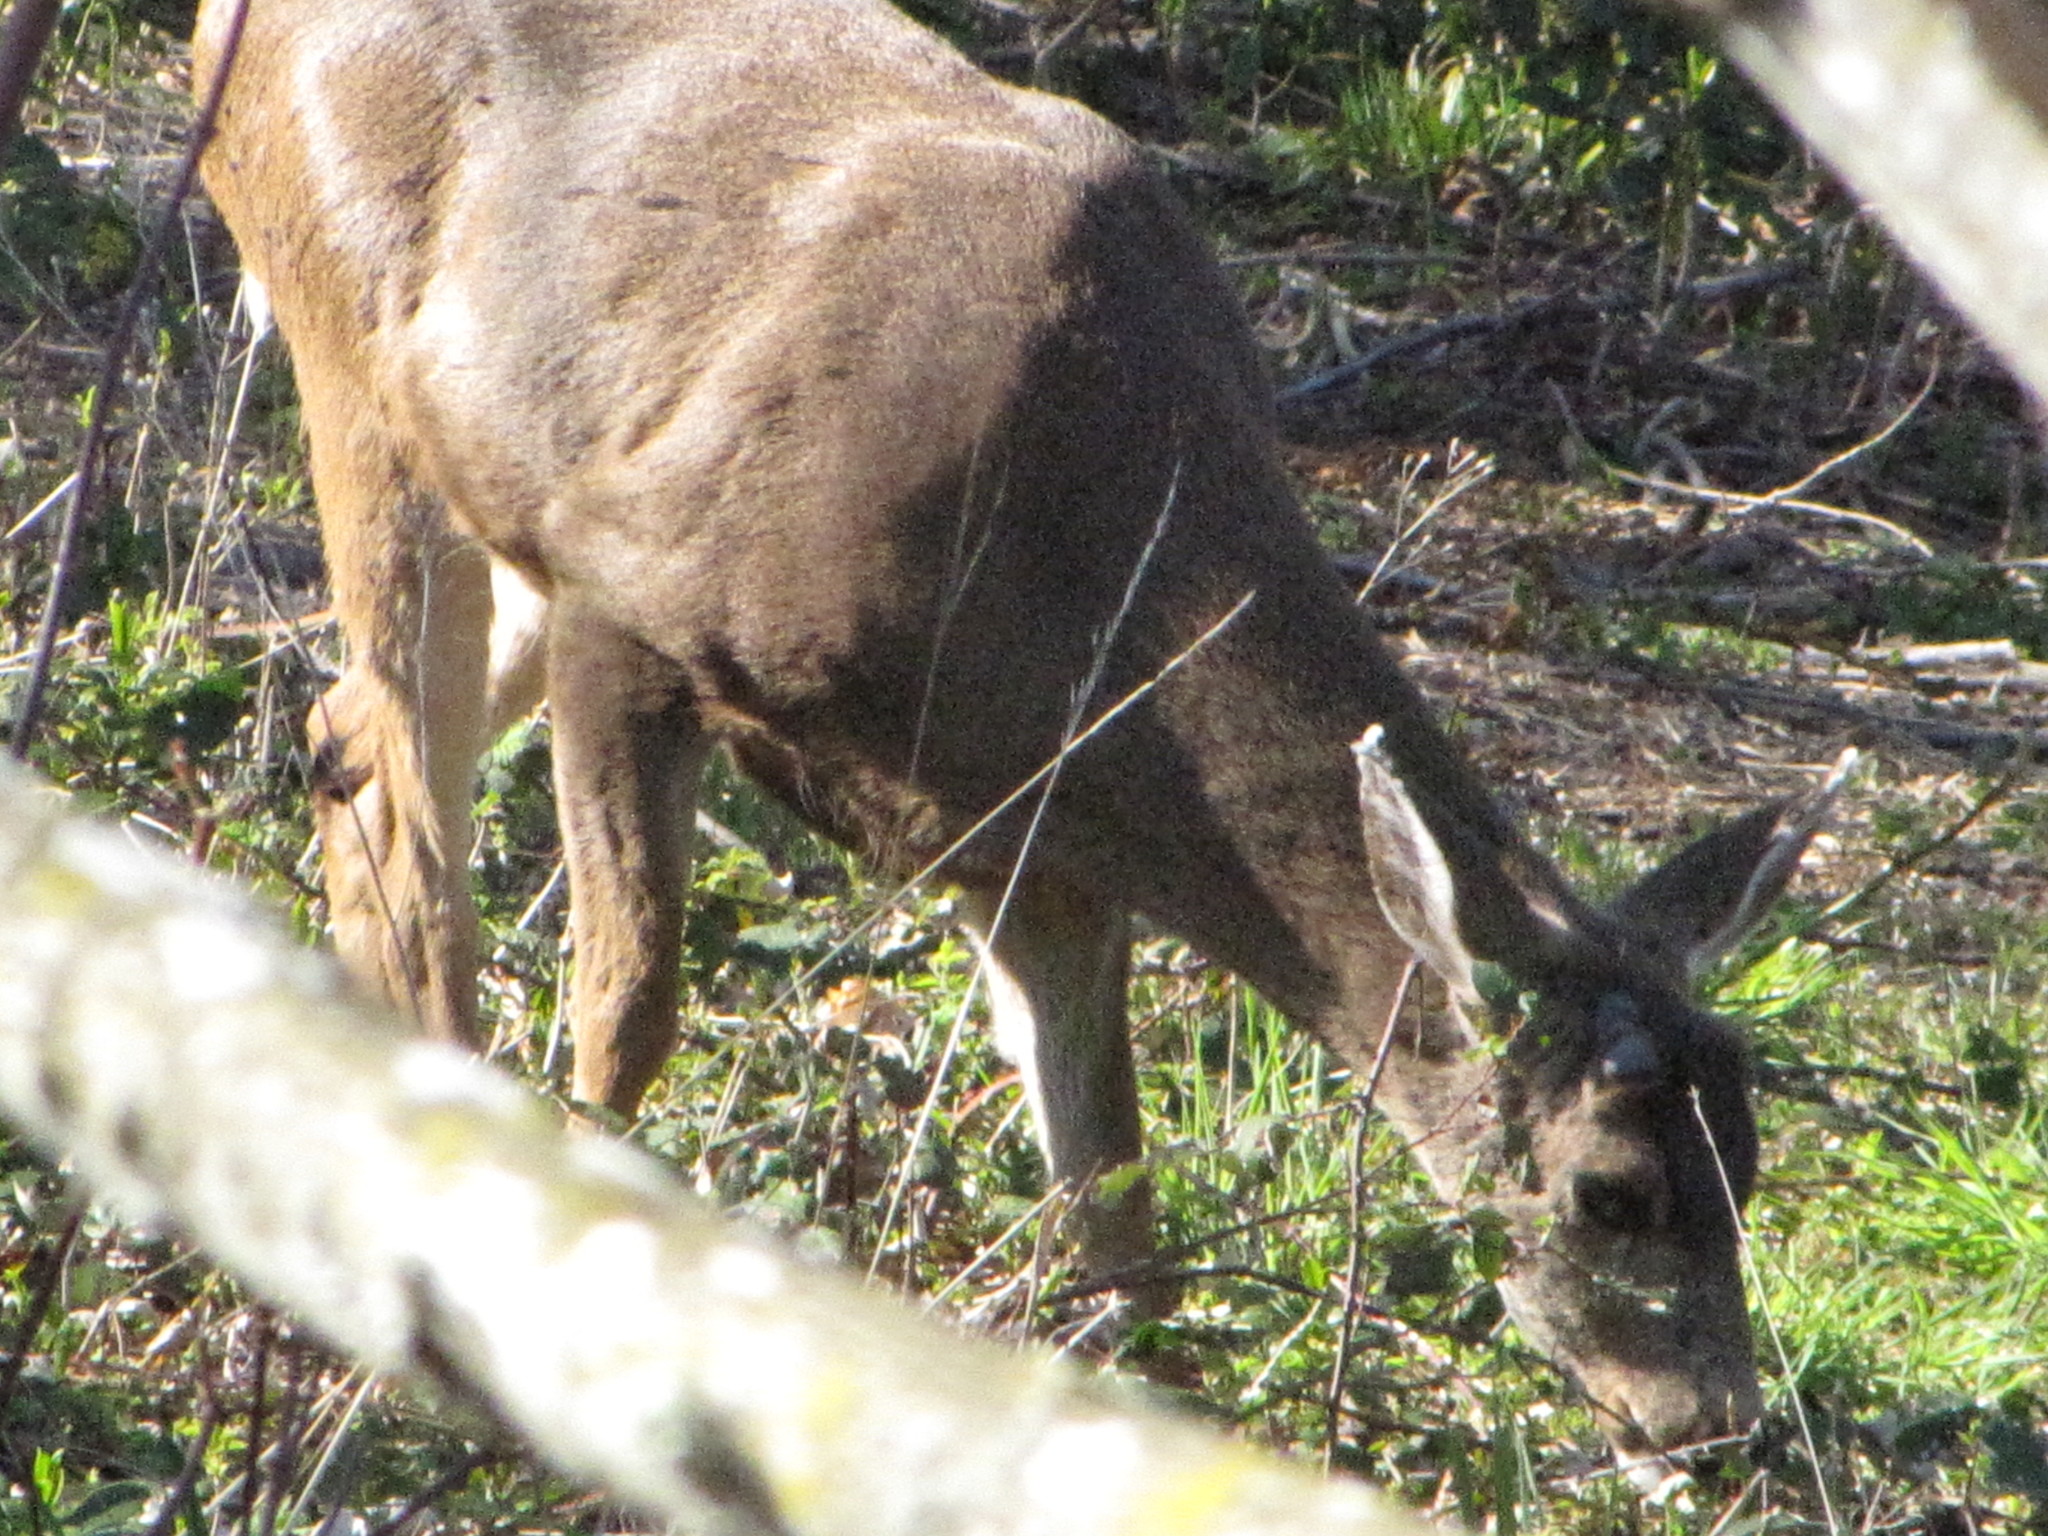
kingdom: Animalia
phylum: Chordata
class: Mammalia
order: Artiodactyla
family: Cervidae
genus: Odocoileus
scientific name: Odocoileus hemionus
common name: Mule deer
